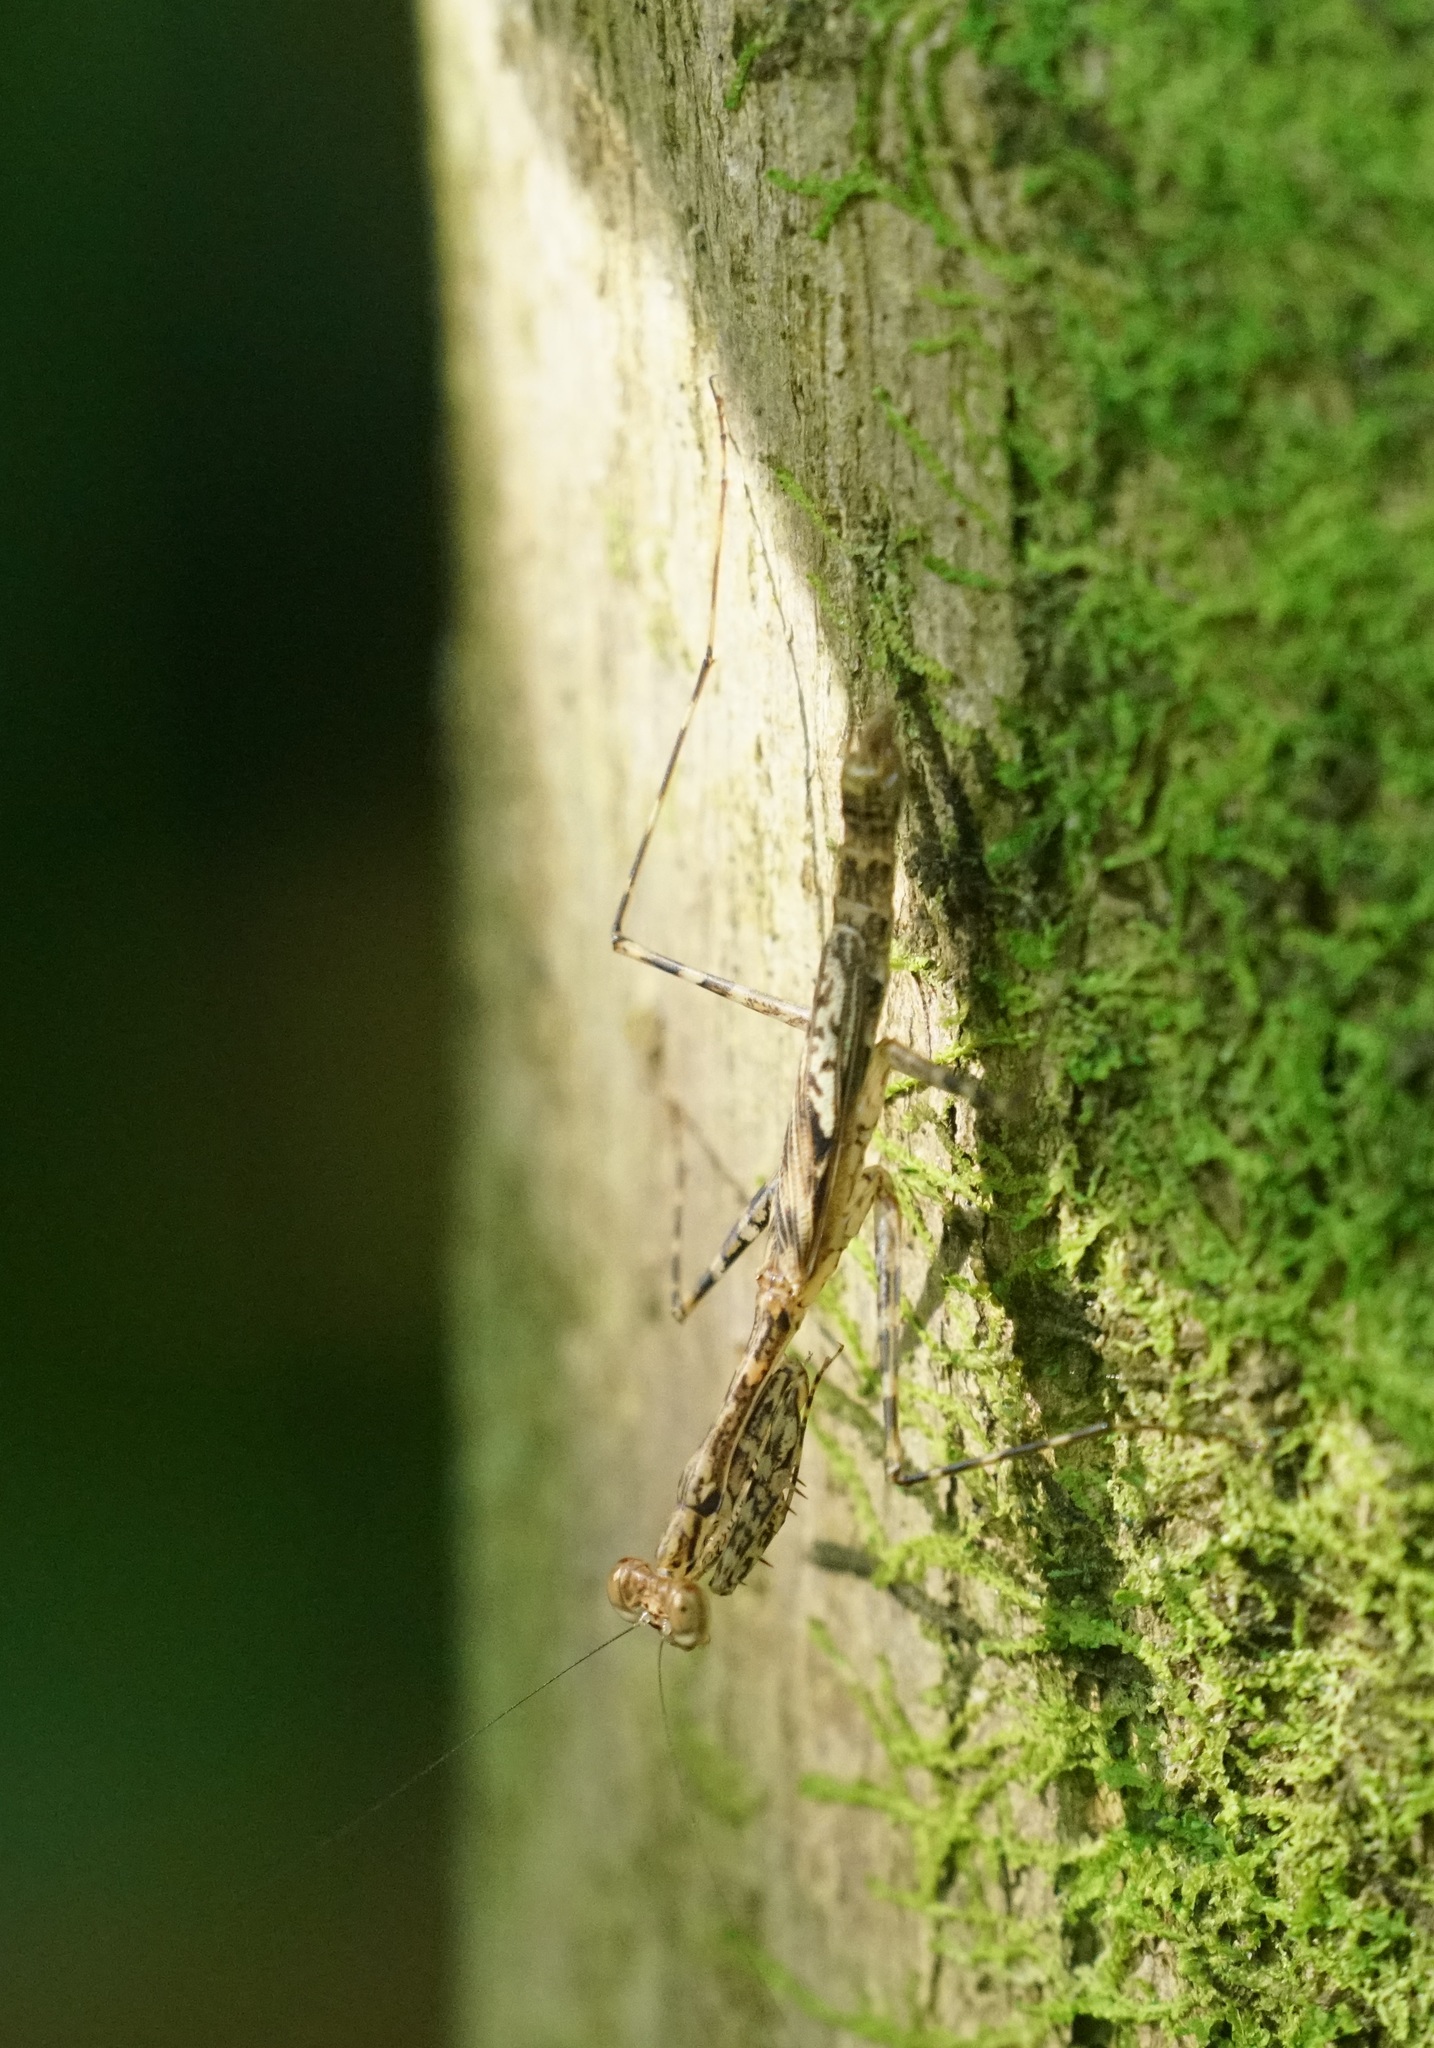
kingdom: Animalia
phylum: Arthropoda
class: Insecta
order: Mantodea
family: Nanomantidae
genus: Ciulfina
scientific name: Ciulfina rentzi
